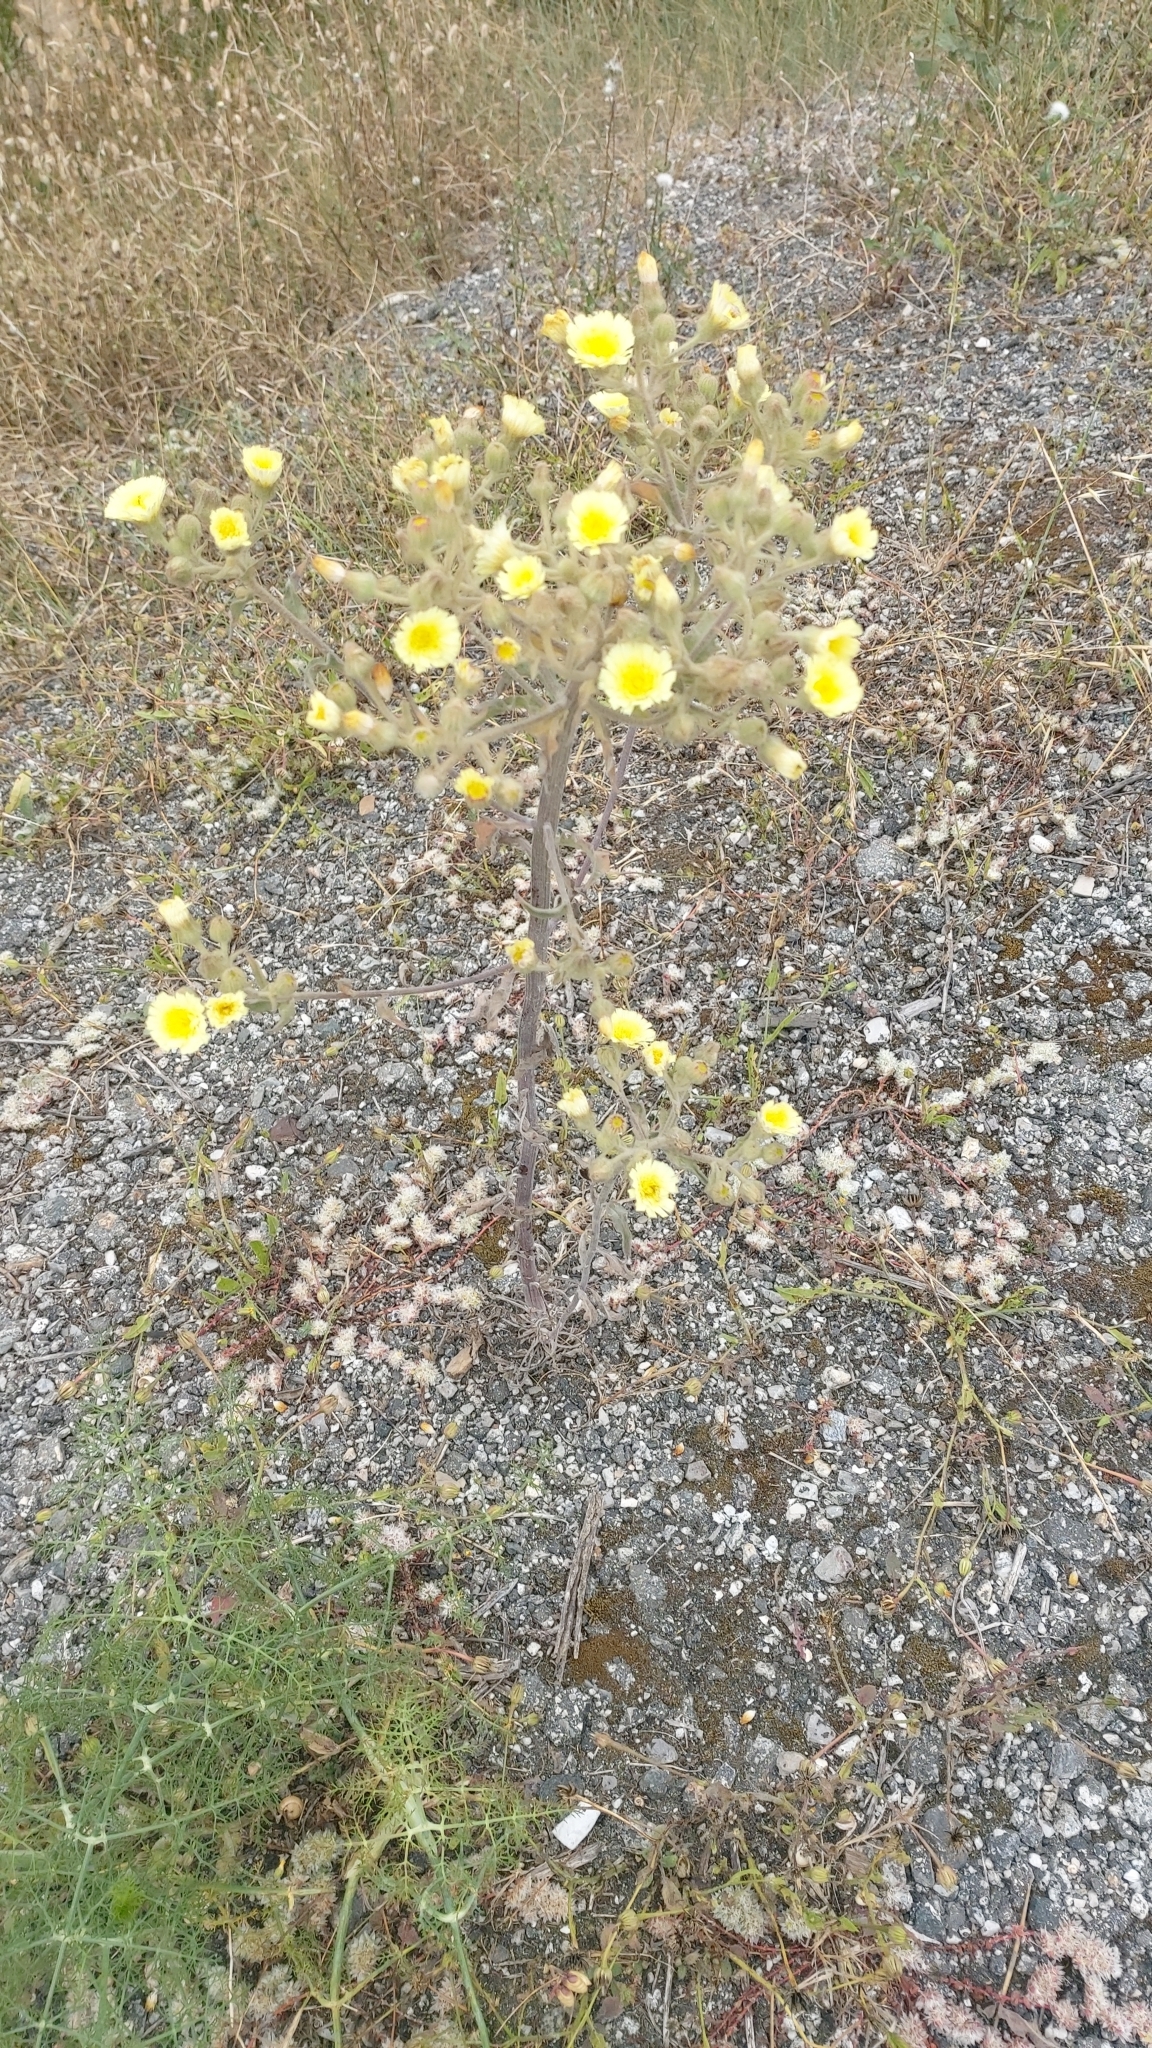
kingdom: Plantae
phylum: Tracheophyta
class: Magnoliopsida
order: Asterales
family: Asteraceae
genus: Andryala
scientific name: Andryala integrifolia
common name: Common andryala
